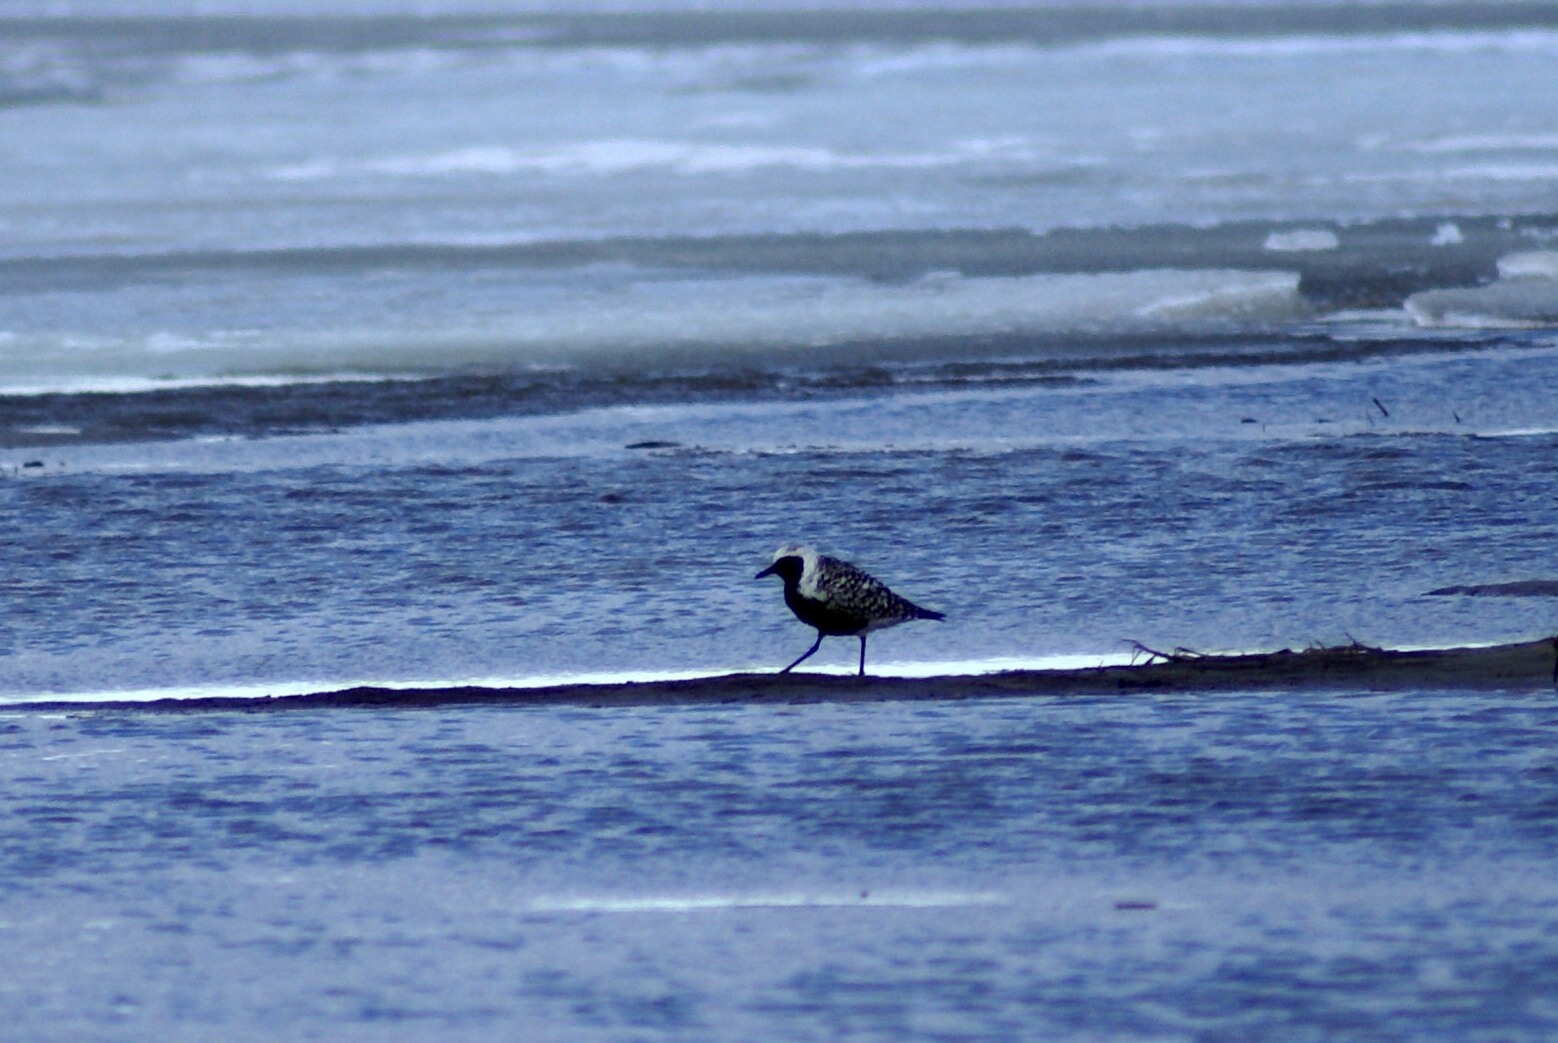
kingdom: Animalia
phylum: Chordata
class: Aves
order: Charadriiformes
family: Charadriidae
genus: Pluvialis
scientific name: Pluvialis squatarola
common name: Grey plover
